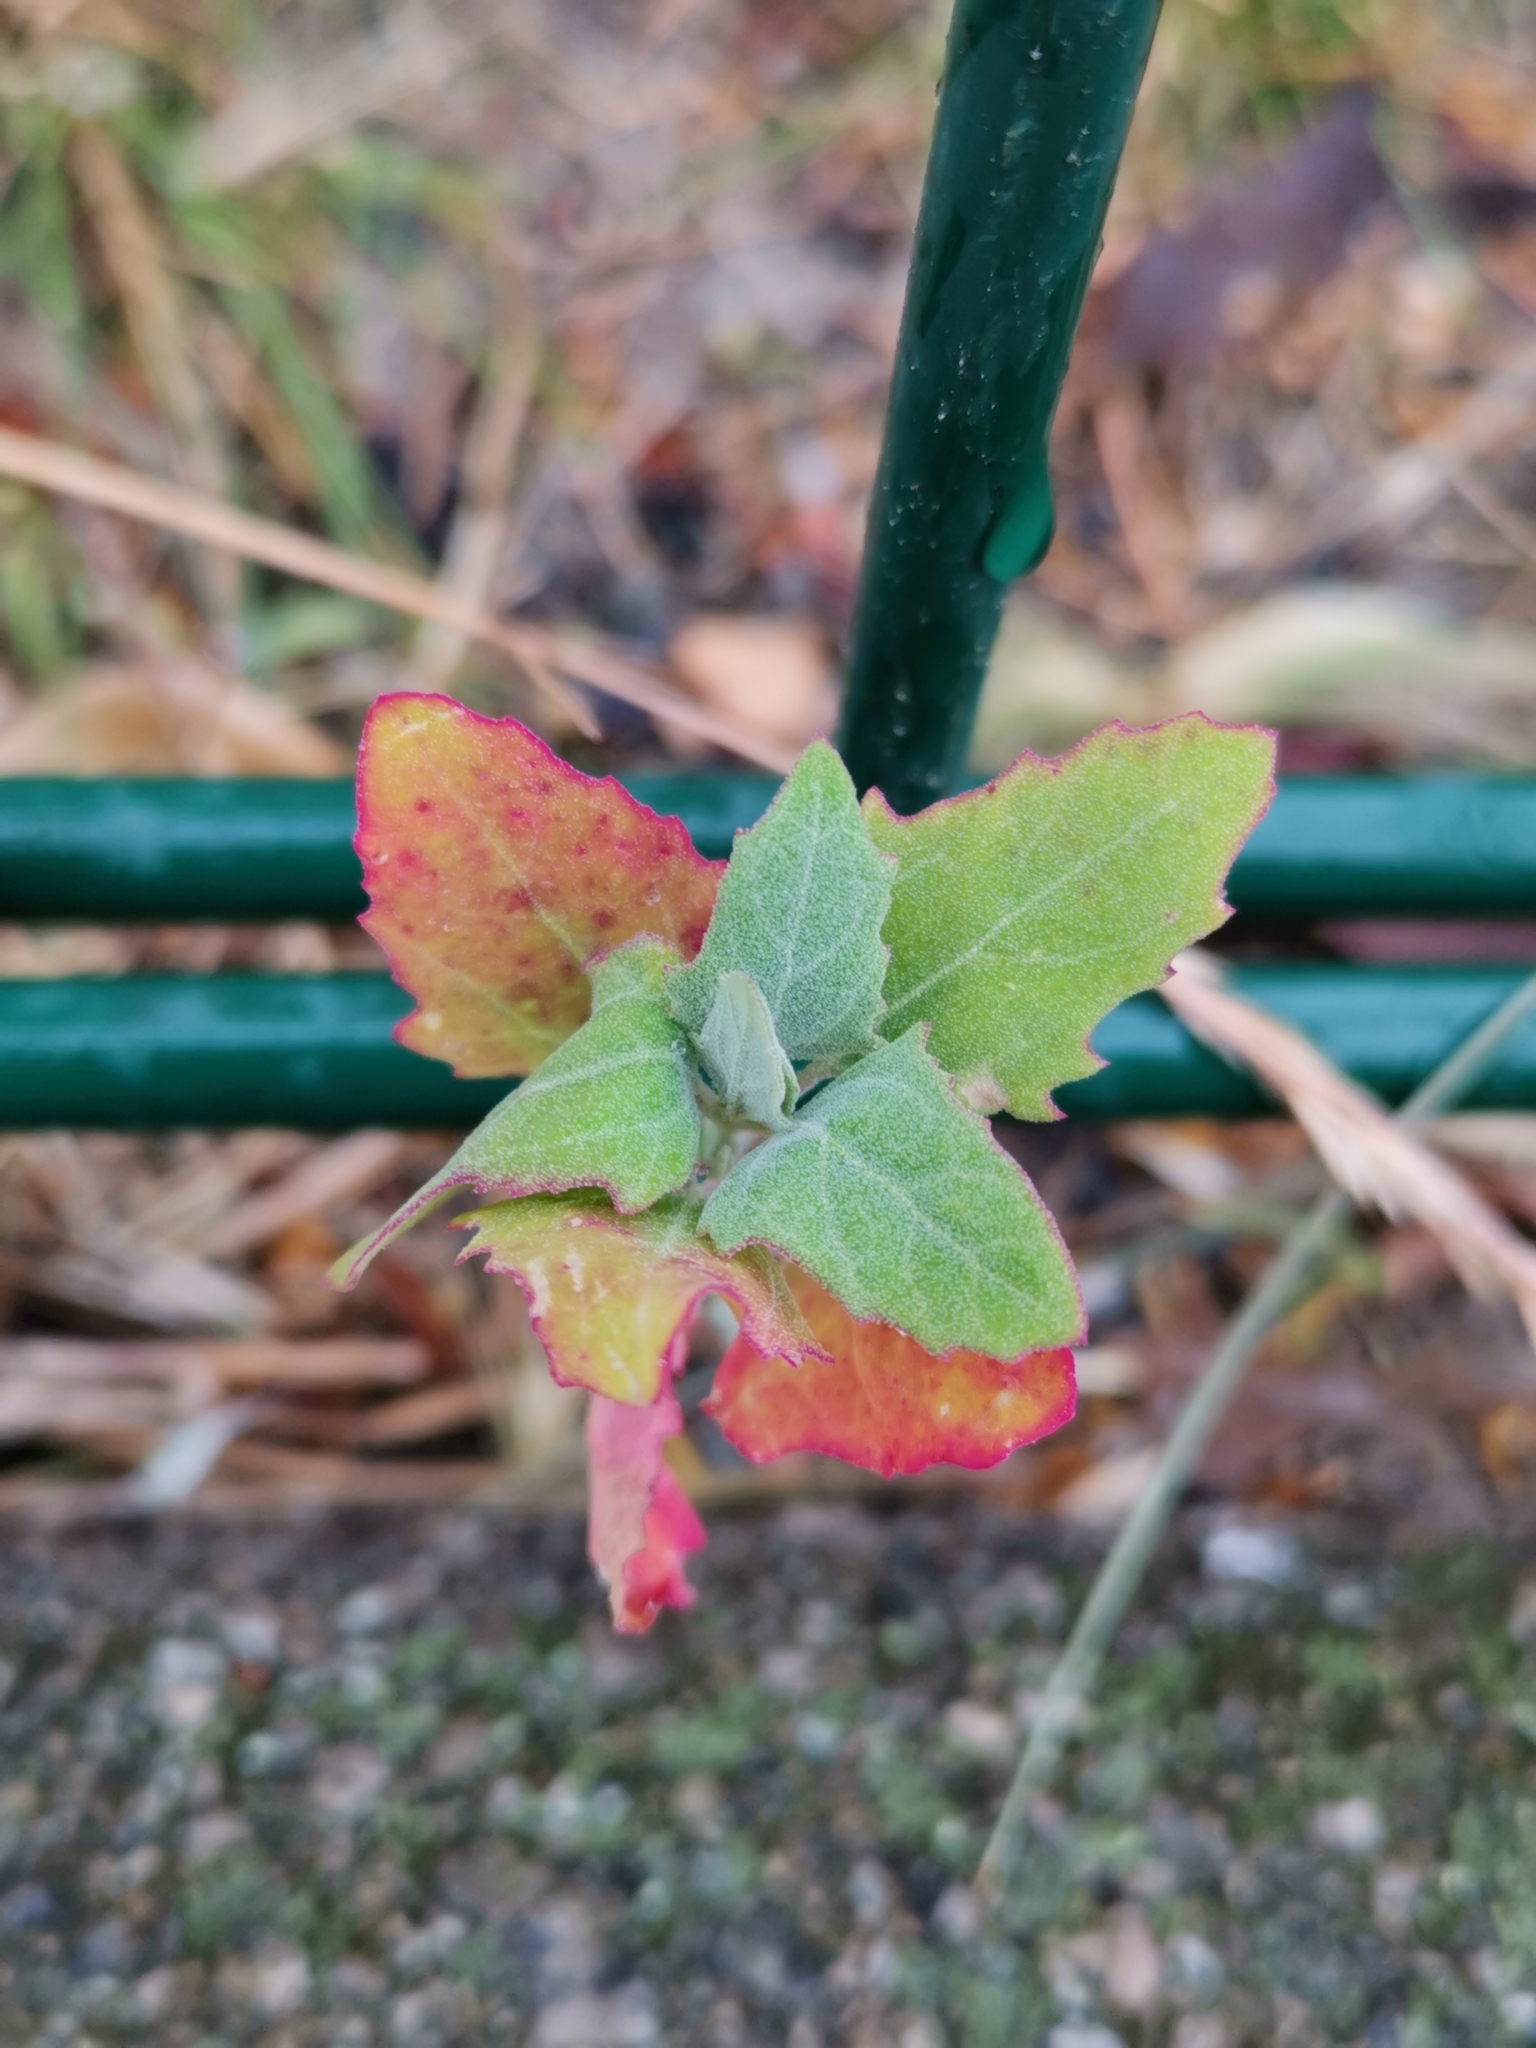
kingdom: Plantae
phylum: Tracheophyta
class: Magnoliopsida
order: Caryophyllales
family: Amaranthaceae
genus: Chenopodium
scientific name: Chenopodium album
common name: Fat-hen
